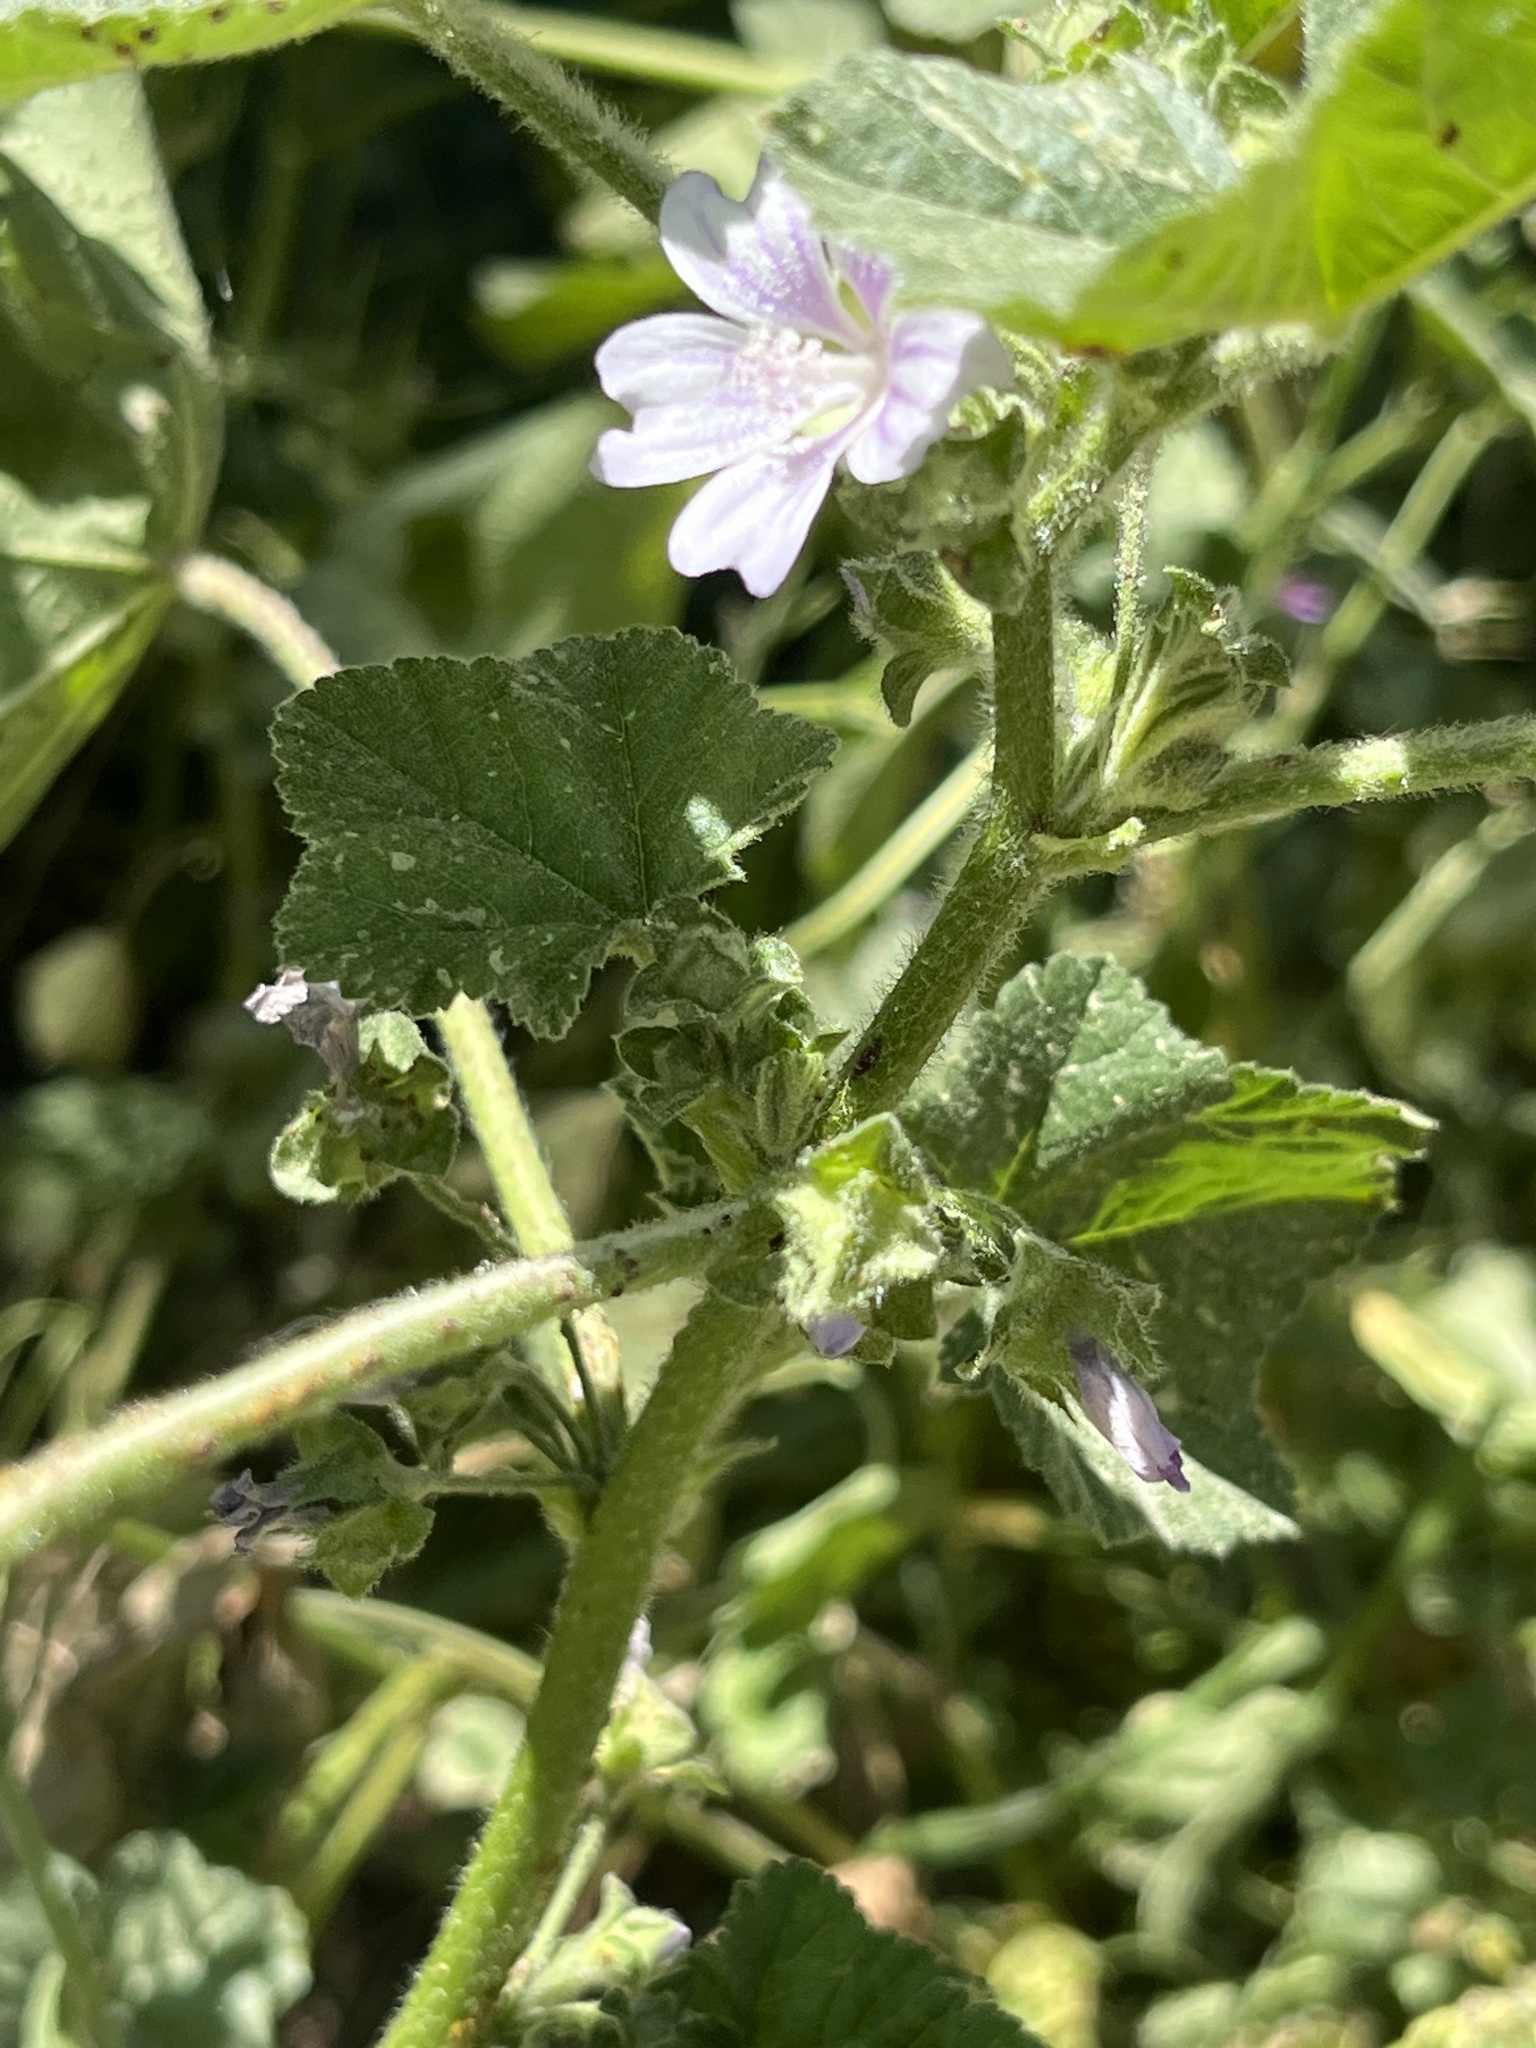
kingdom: Fungi
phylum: Basidiomycota
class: Pucciniomycetes
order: Pucciniales
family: Pucciniaceae
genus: Puccinia
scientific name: Puccinia malvacearum
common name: Hollyhock rust
